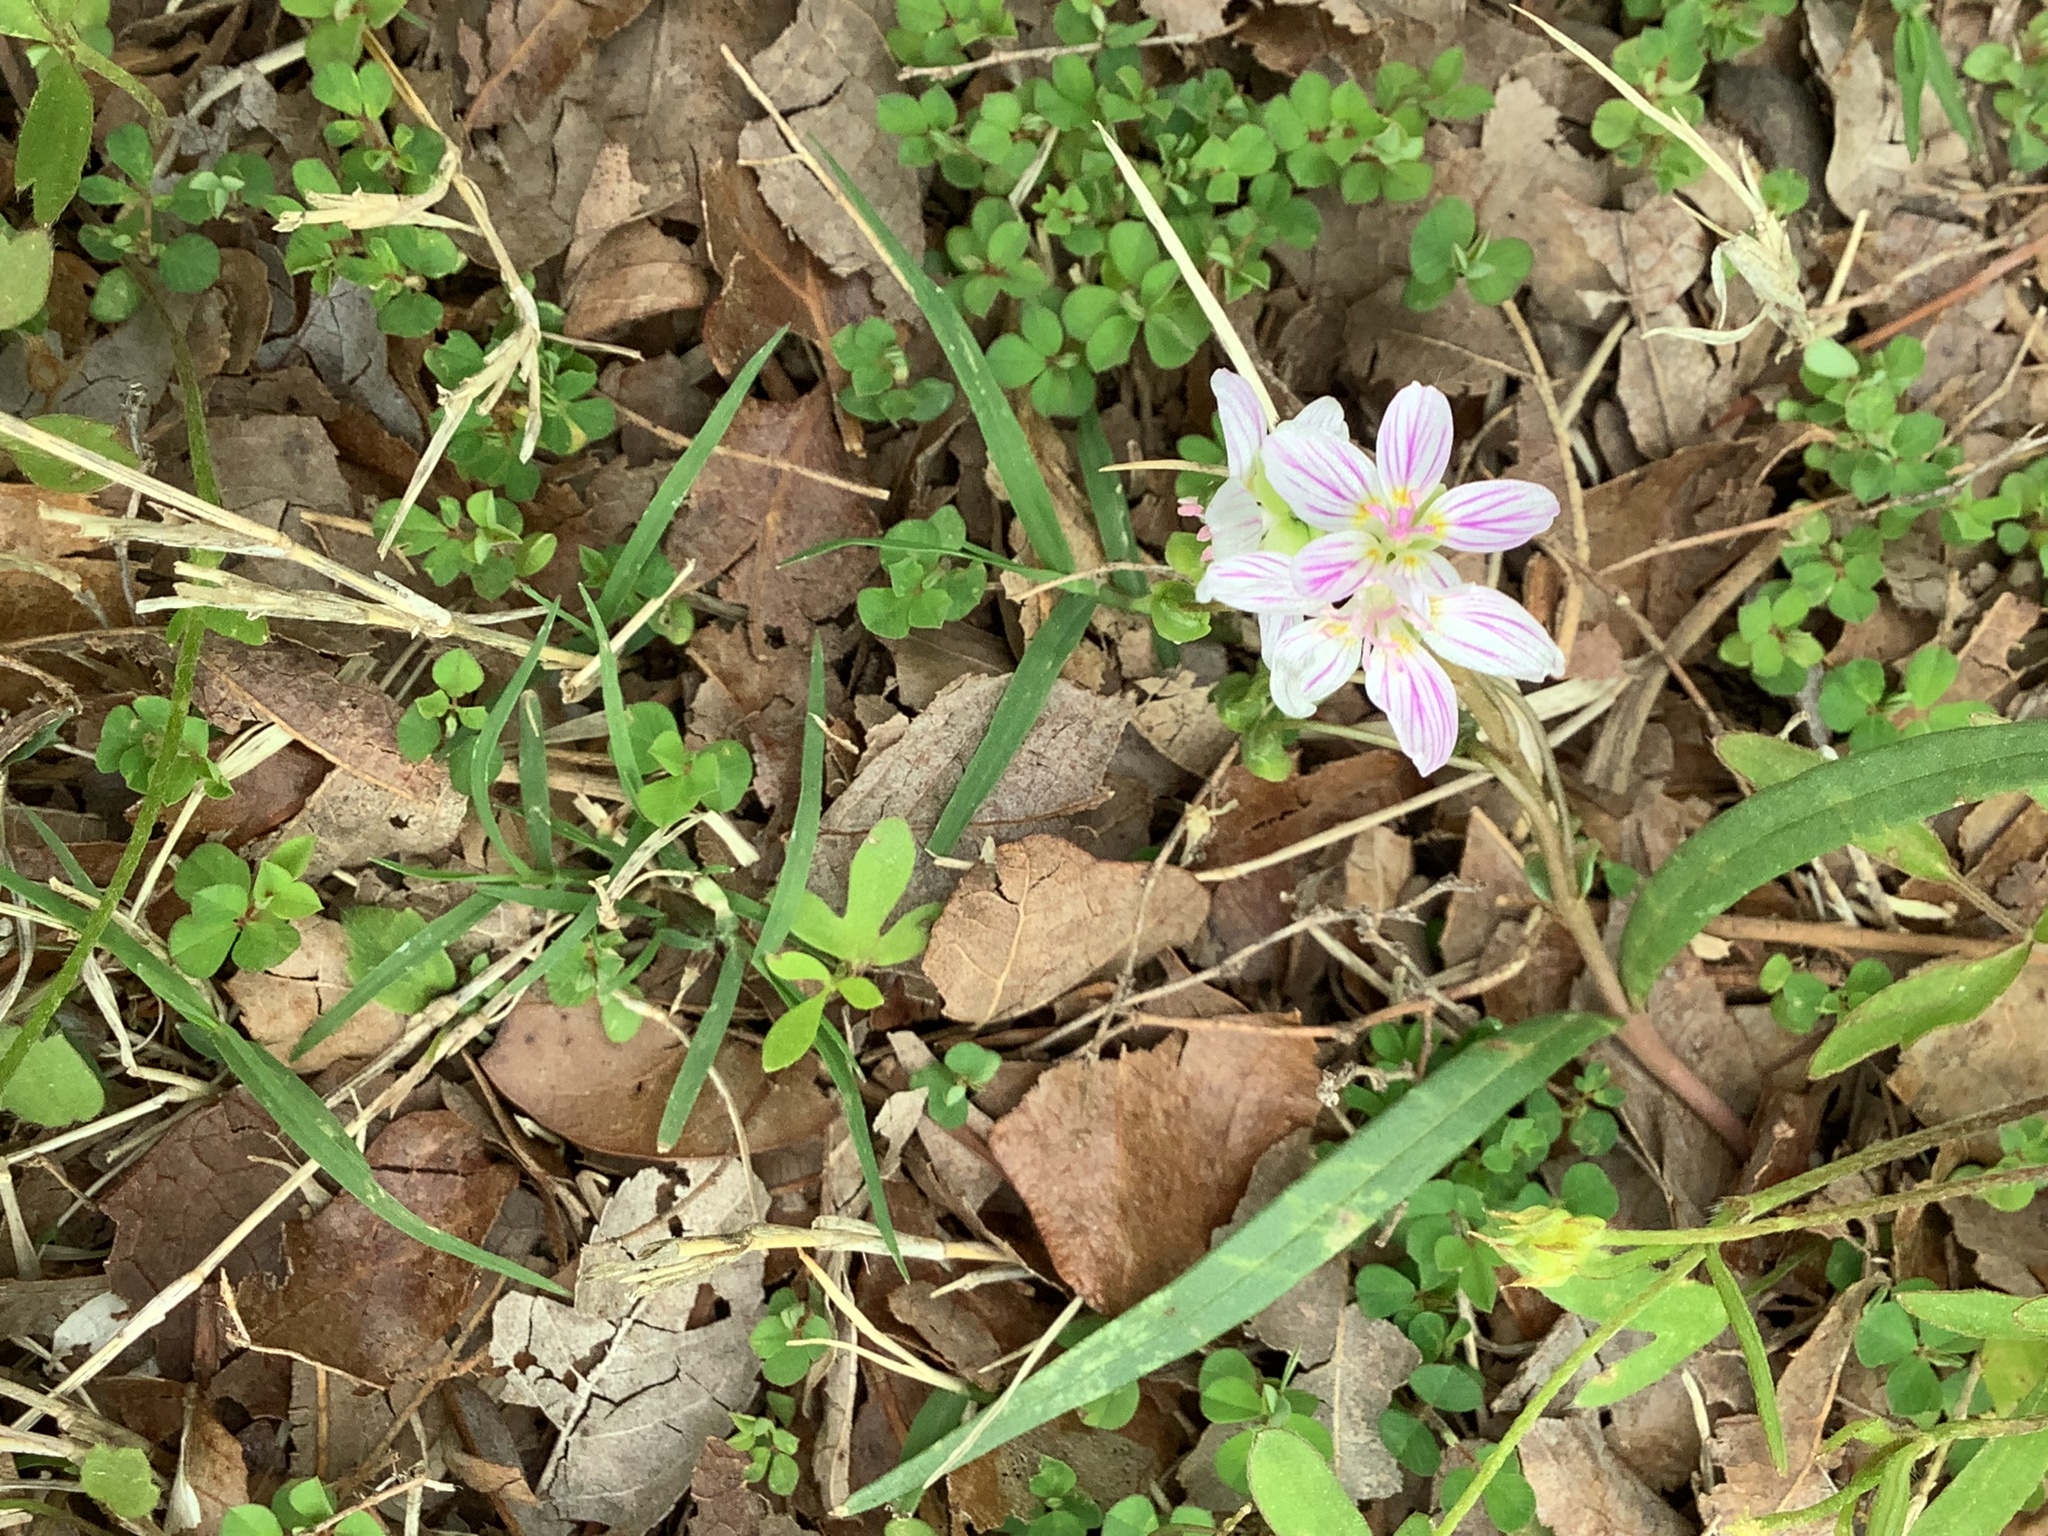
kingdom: Plantae
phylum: Tracheophyta
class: Magnoliopsida
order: Caryophyllales
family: Montiaceae
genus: Claytonia
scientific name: Claytonia virginica
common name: Virginia springbeauty
